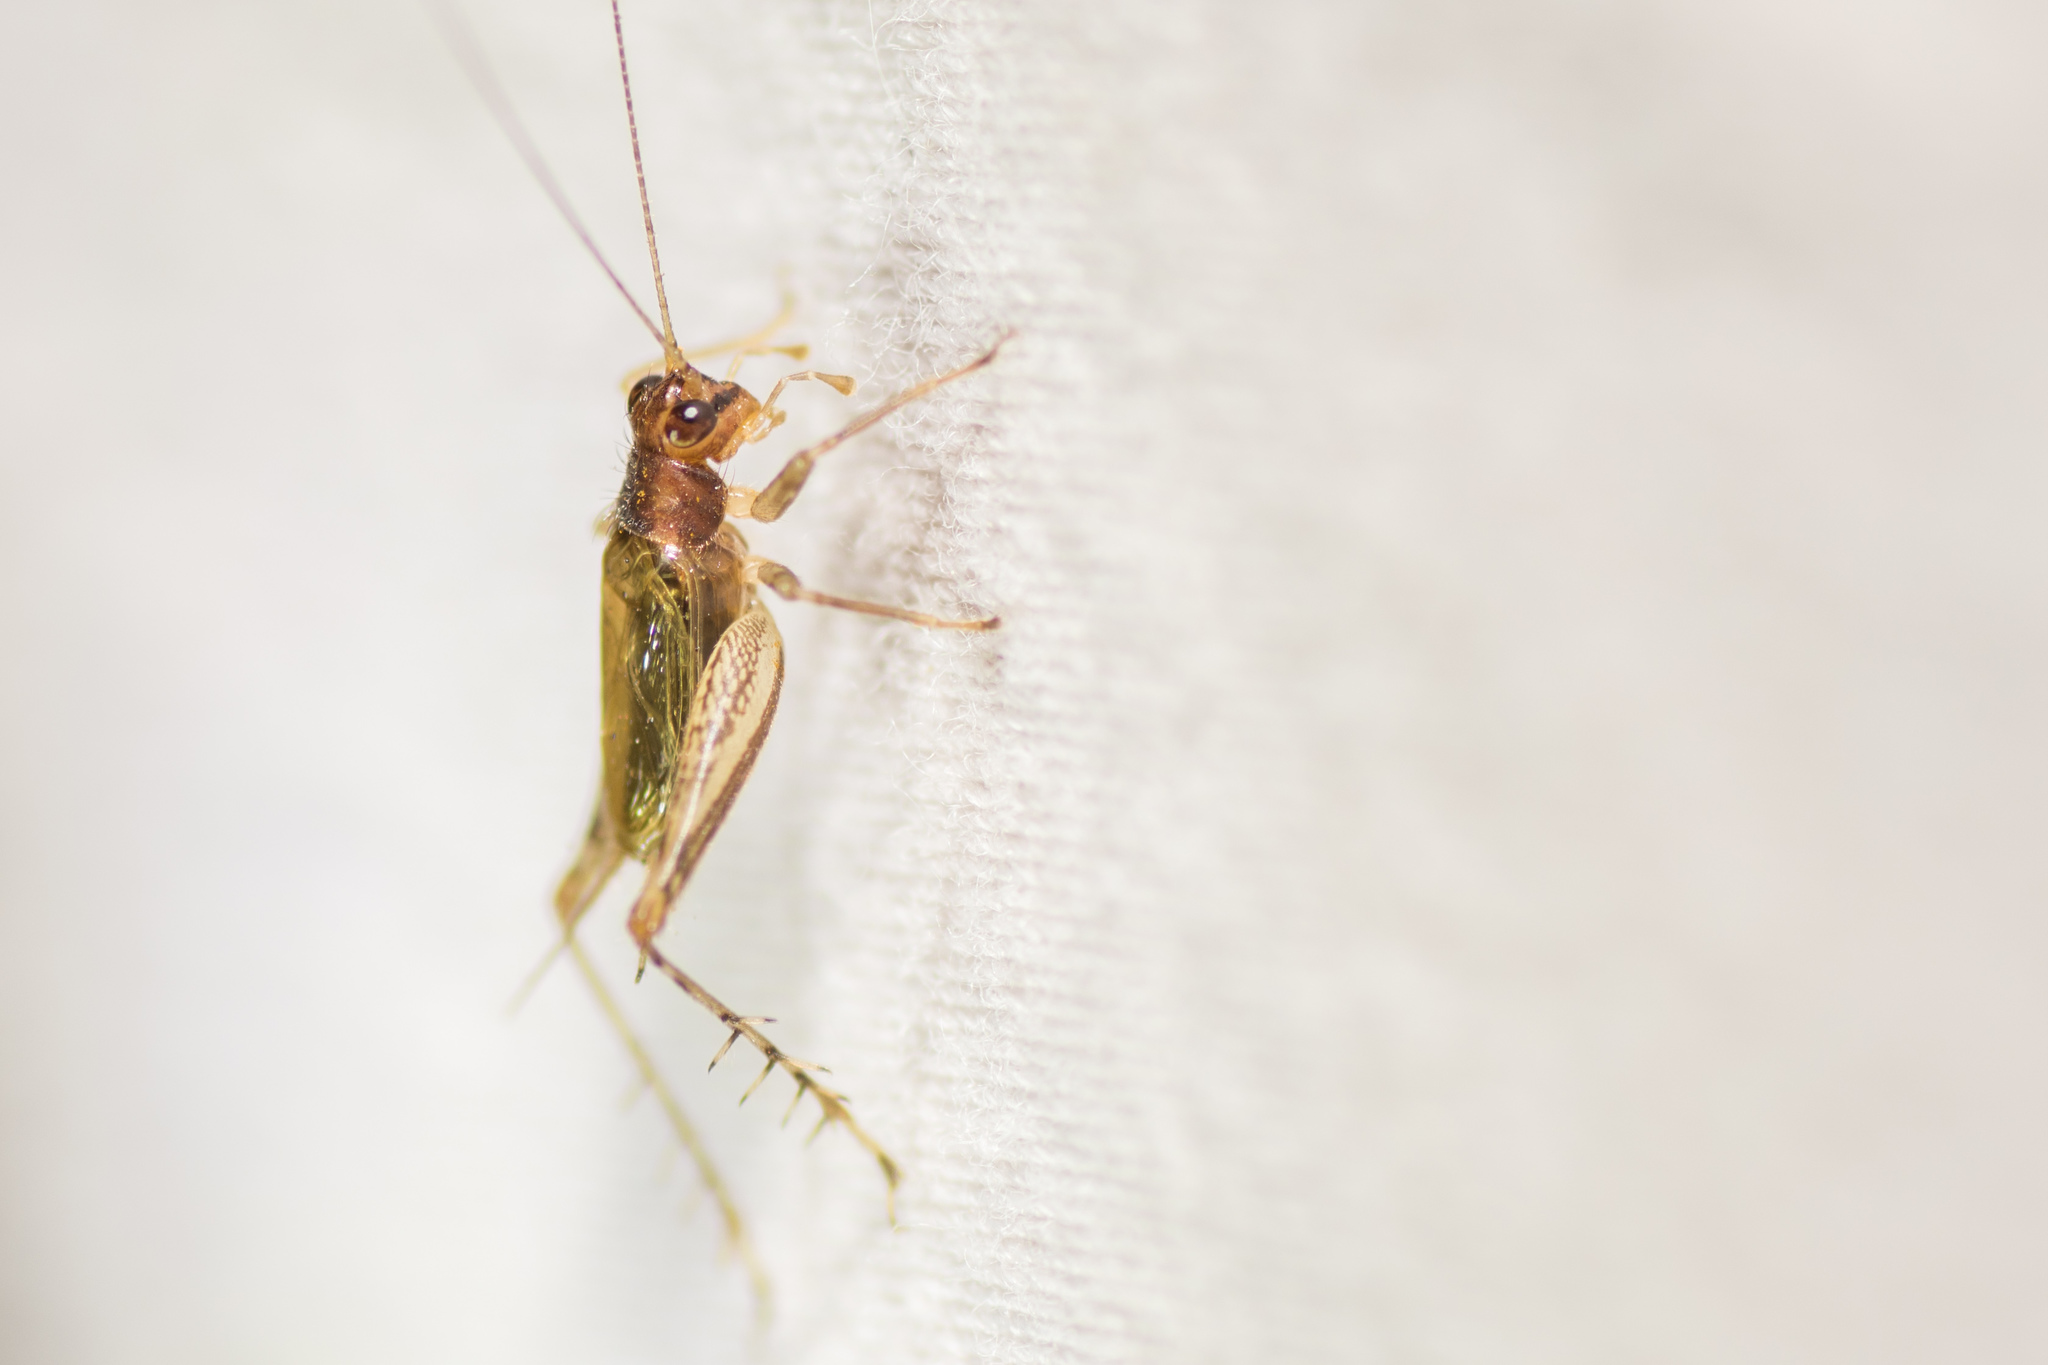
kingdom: Animalia
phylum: Arthropoda
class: Insecta
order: Orthoptera
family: Trigonidiidae
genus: Anaxipha
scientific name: Anaxipha exigua
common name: Say's bush cricket
